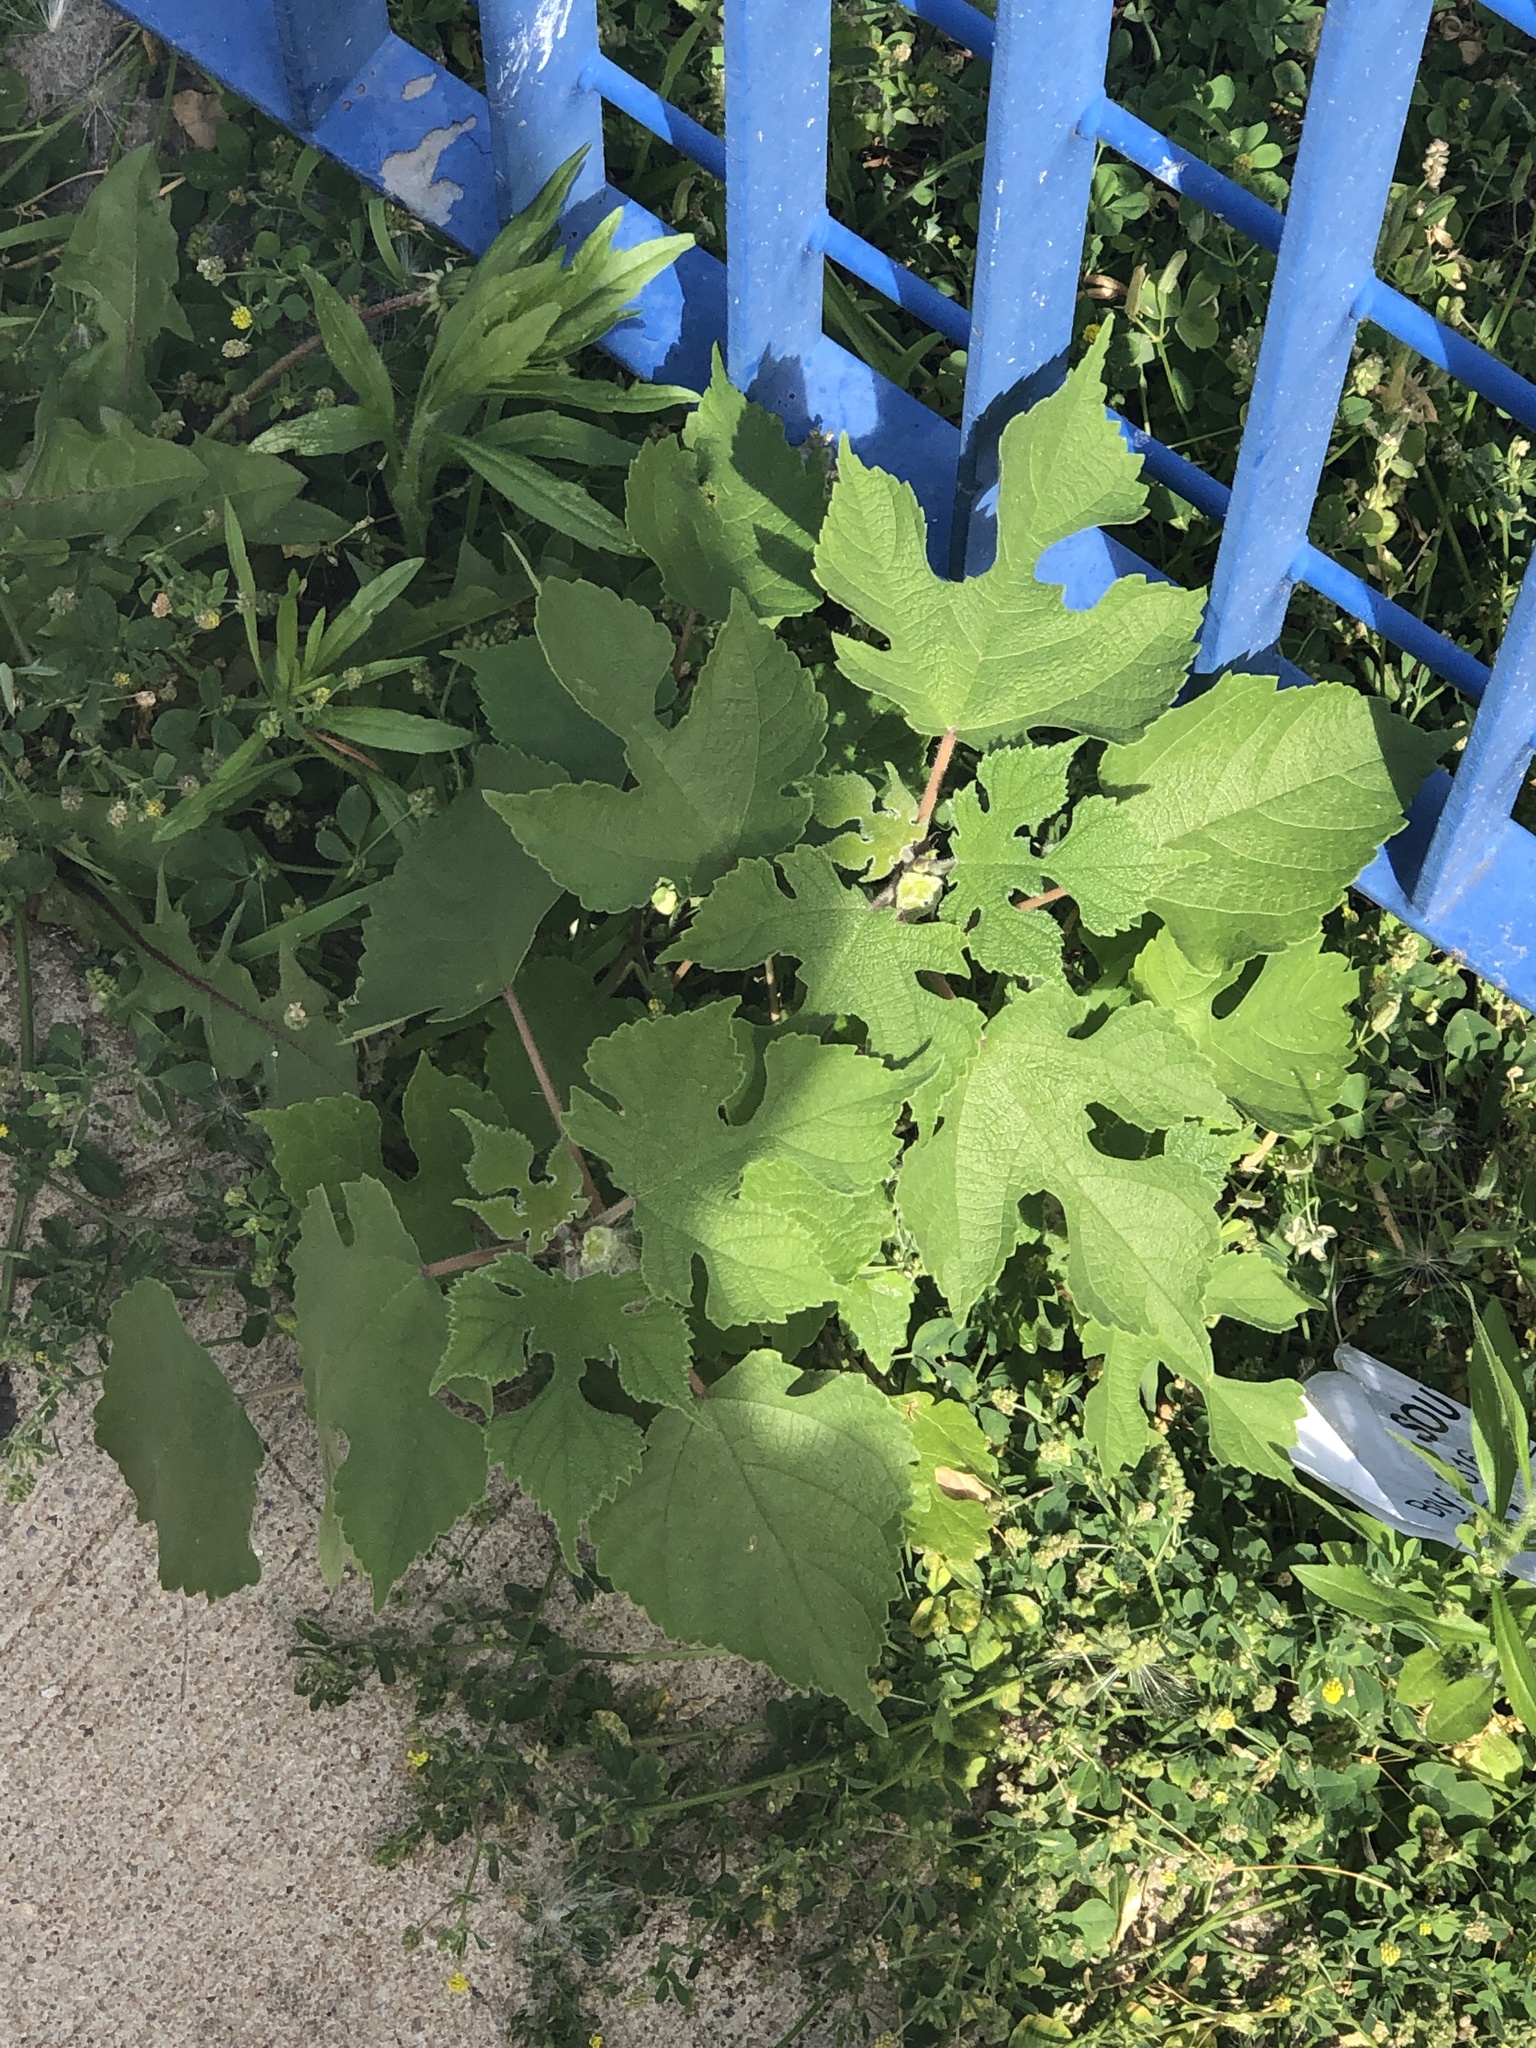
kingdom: Plantae
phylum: Tracheophyta
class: Magnoliopsida
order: Rosales
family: Moraceae
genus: Broussonetia
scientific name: Broussonetia papyrifera
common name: Paper mulberry
